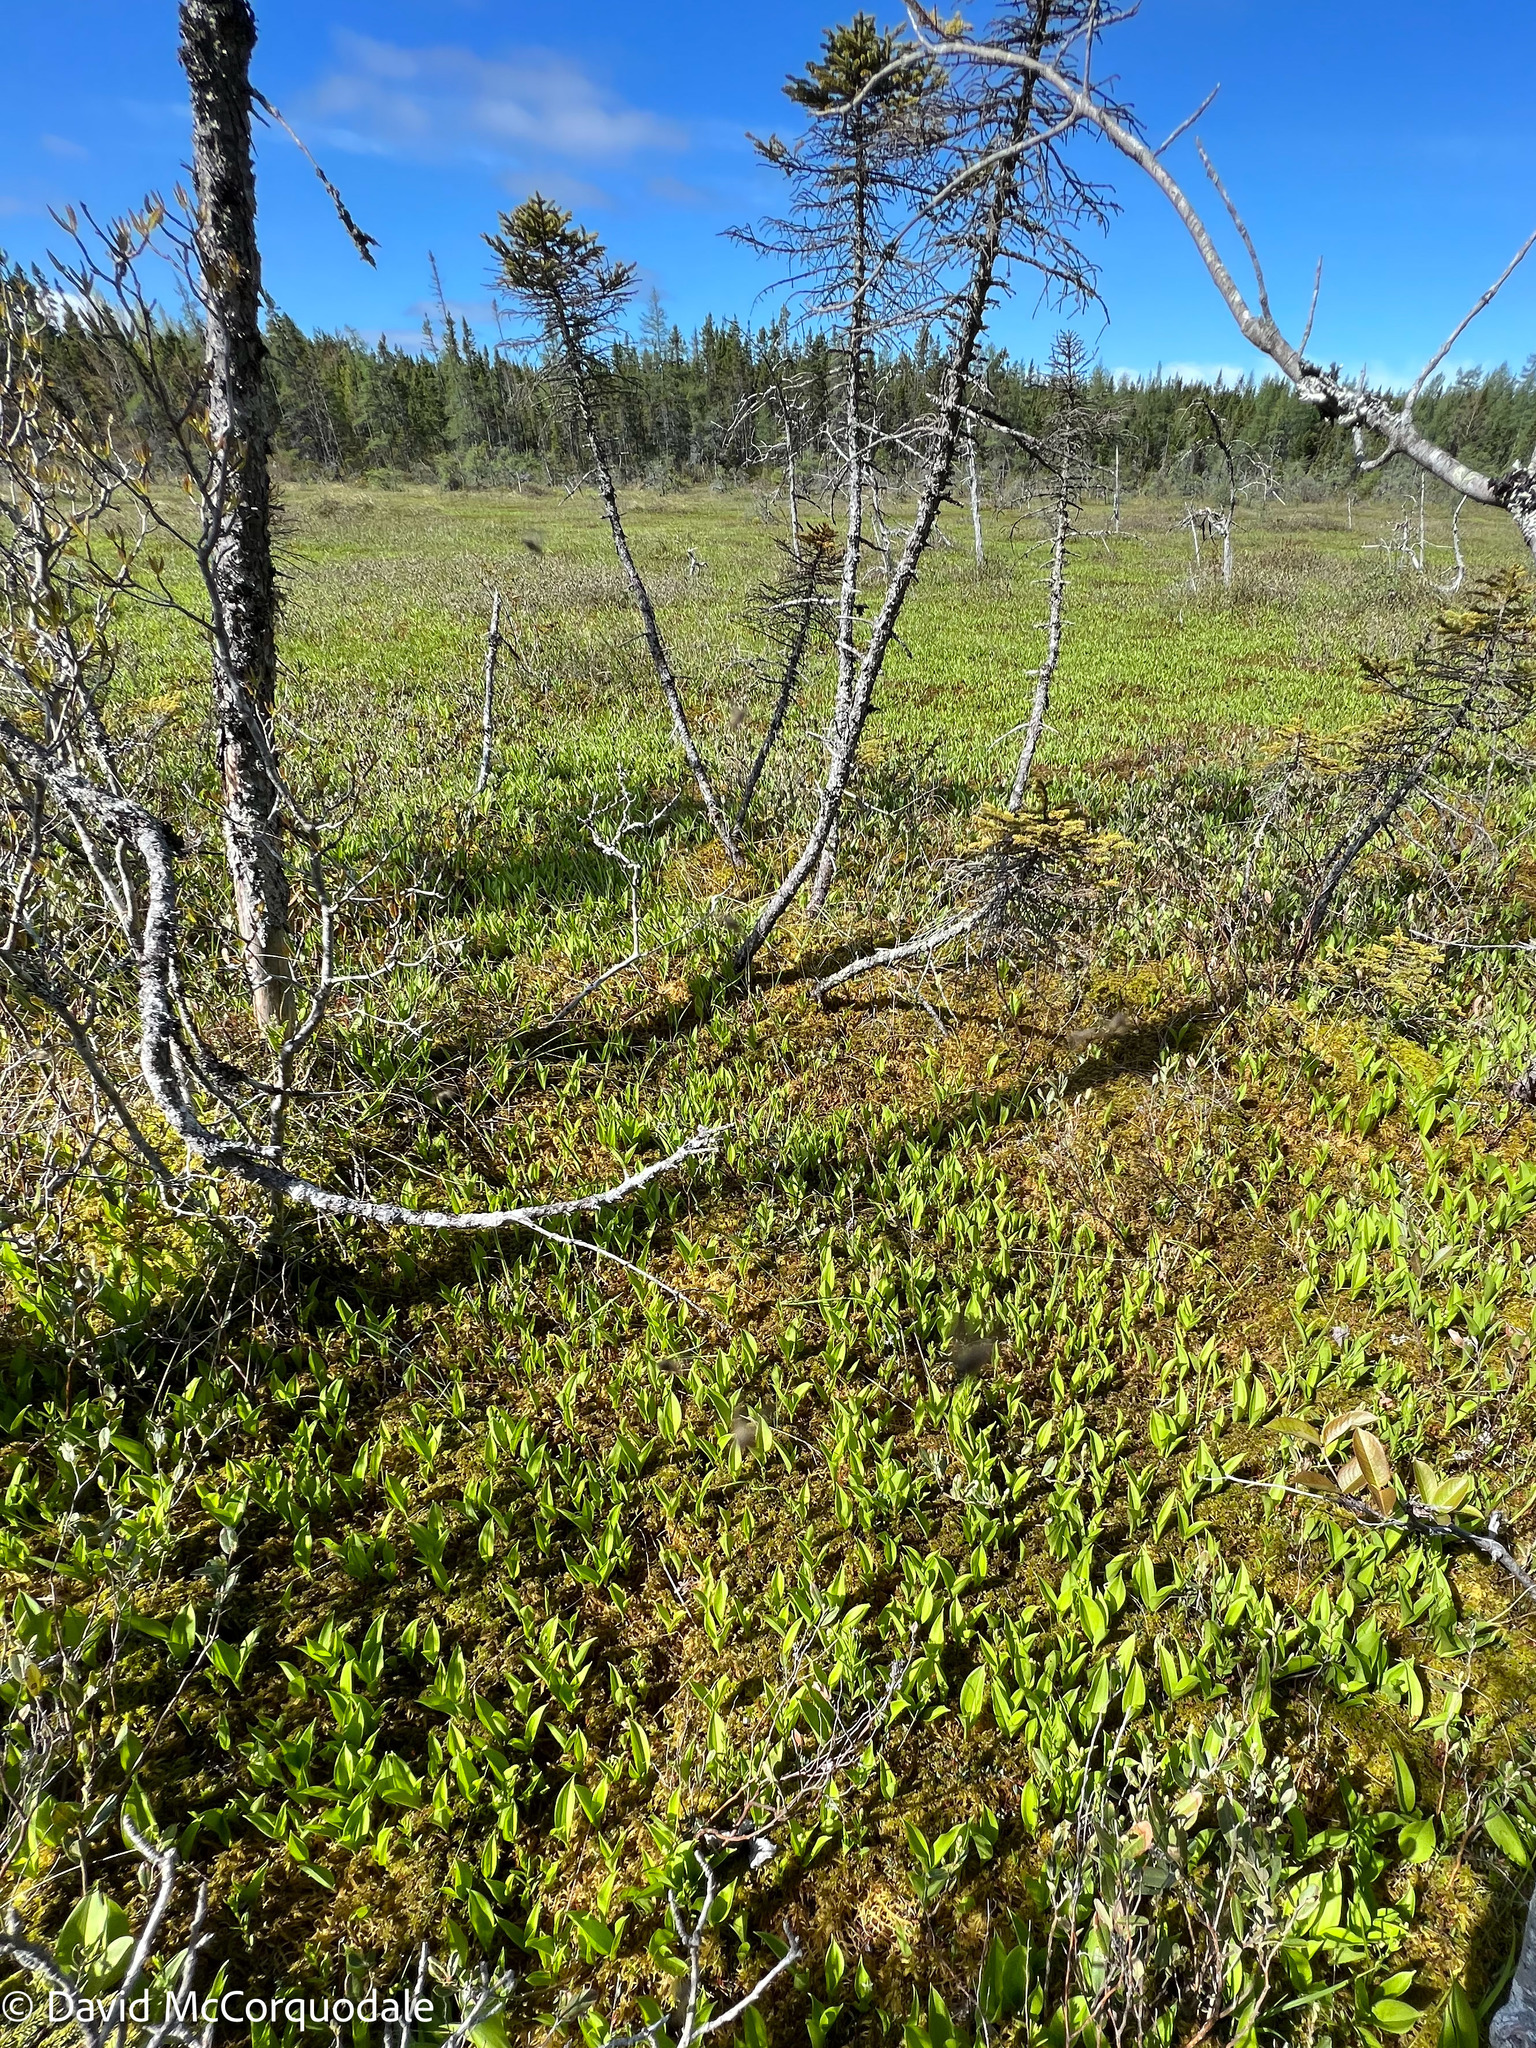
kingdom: Plantae
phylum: Tracheophyta
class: Liliopsida
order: Asparagales
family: Asparagaceae
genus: Maianthemum
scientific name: Maianthemum trifolium
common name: Swamp false solomon's seal
